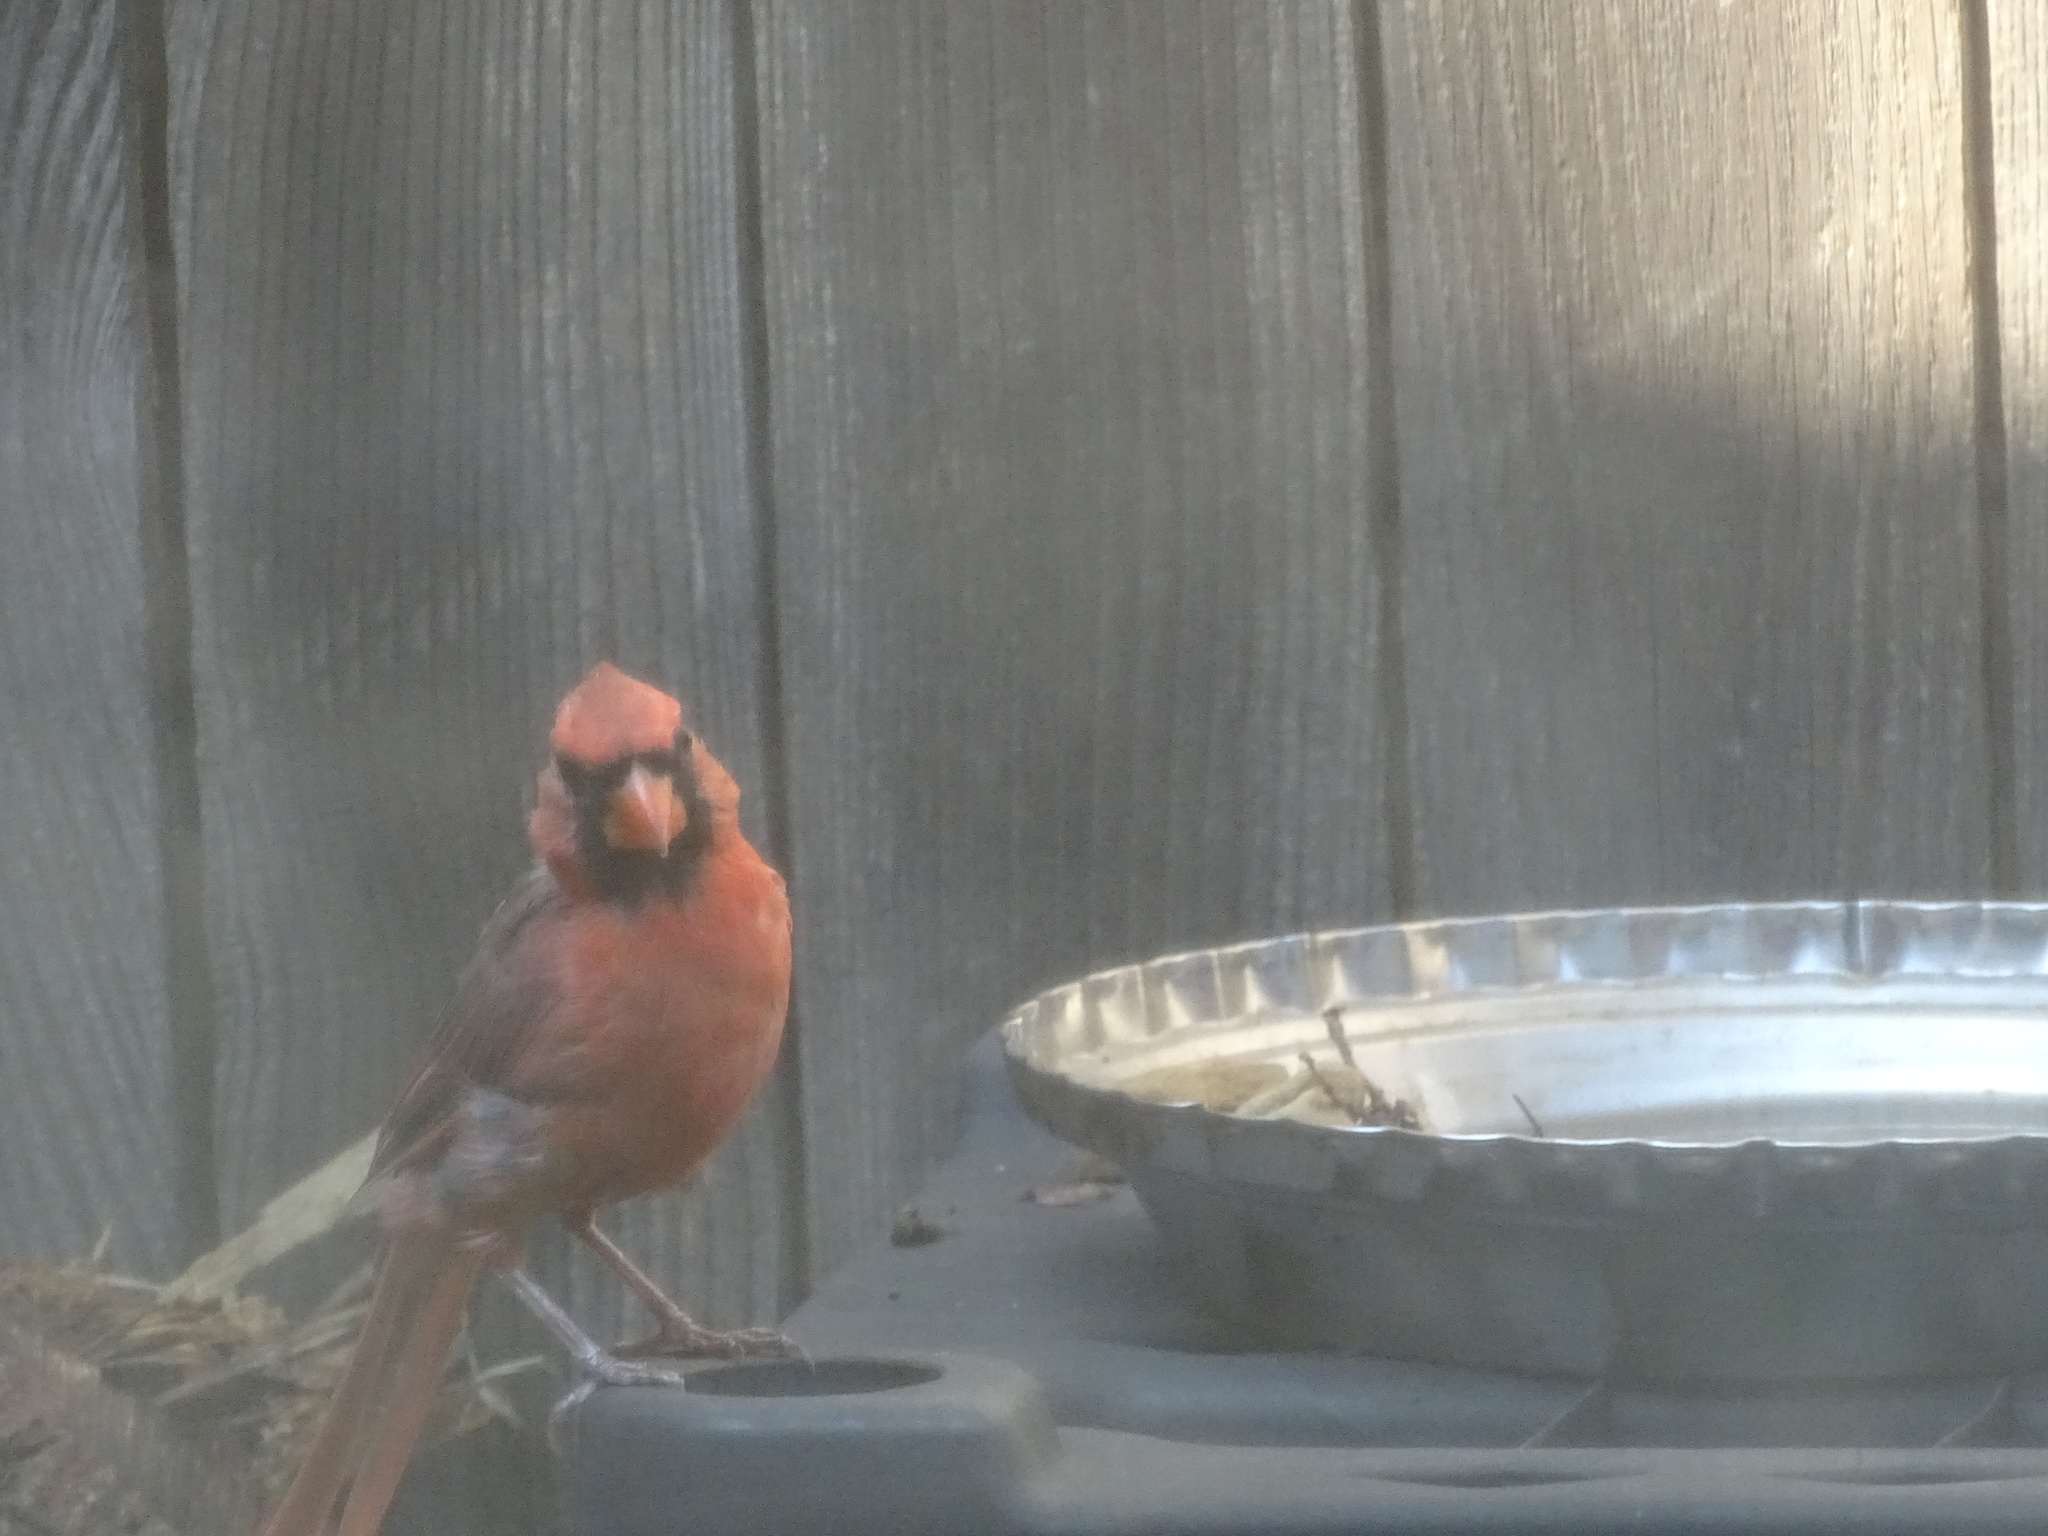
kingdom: Animalia
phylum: Chordata
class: Aves
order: Passeriformes
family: Cardinalidae
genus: Cardinalis
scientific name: Cardinalis cardinalis
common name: Northern cardinal
